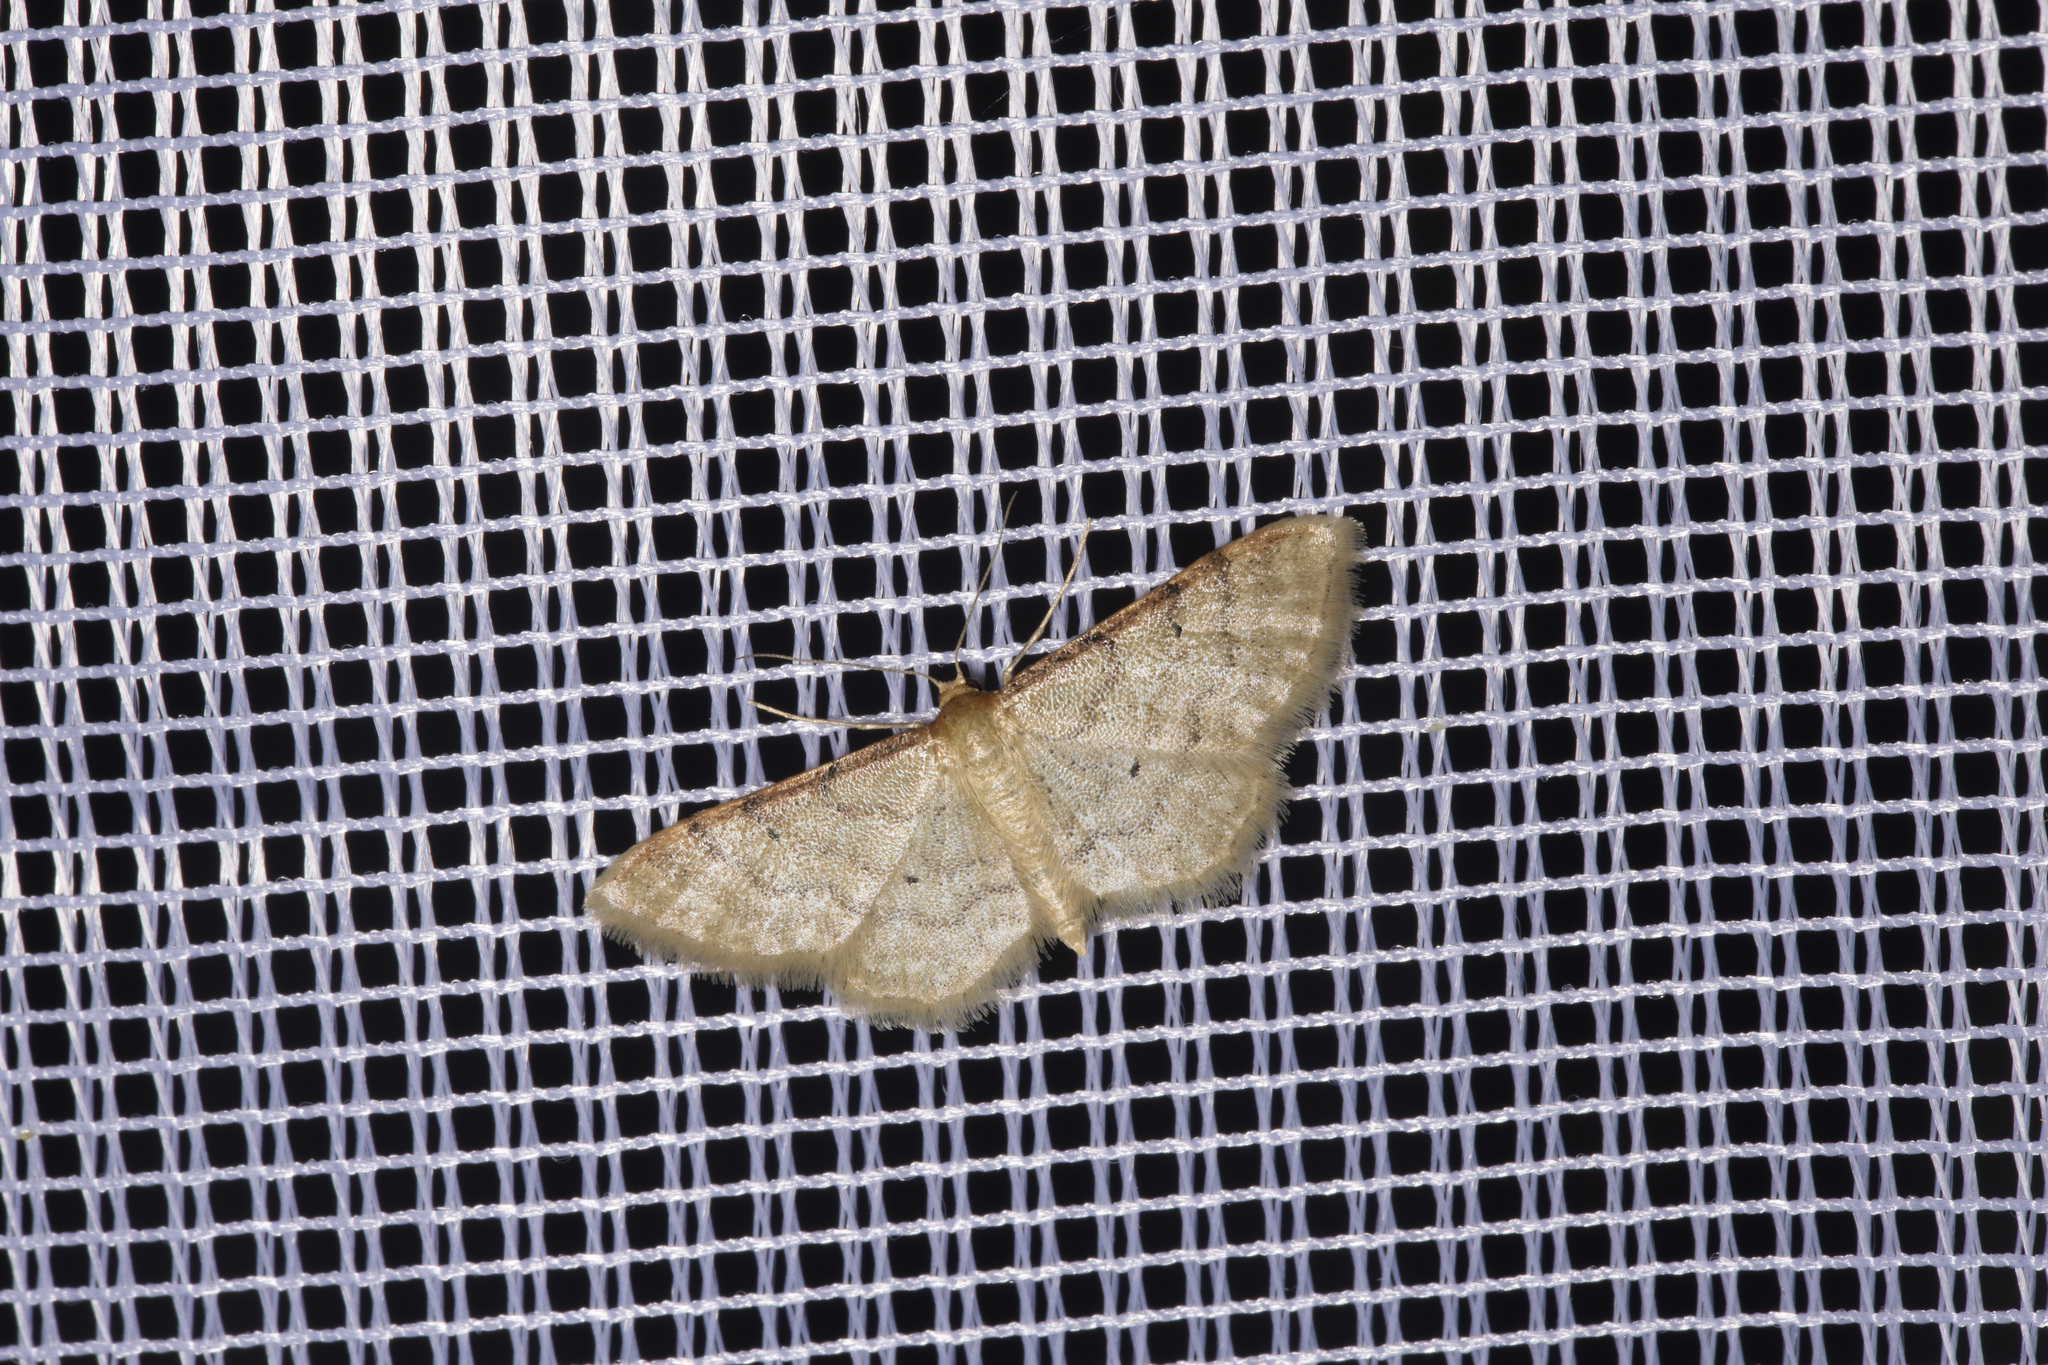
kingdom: Animalia
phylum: Arthropoda
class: Insecta
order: Lepidoptera
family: Geometridae
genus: Idaea
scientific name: Idaea humiliata
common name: Isle of wight wave
